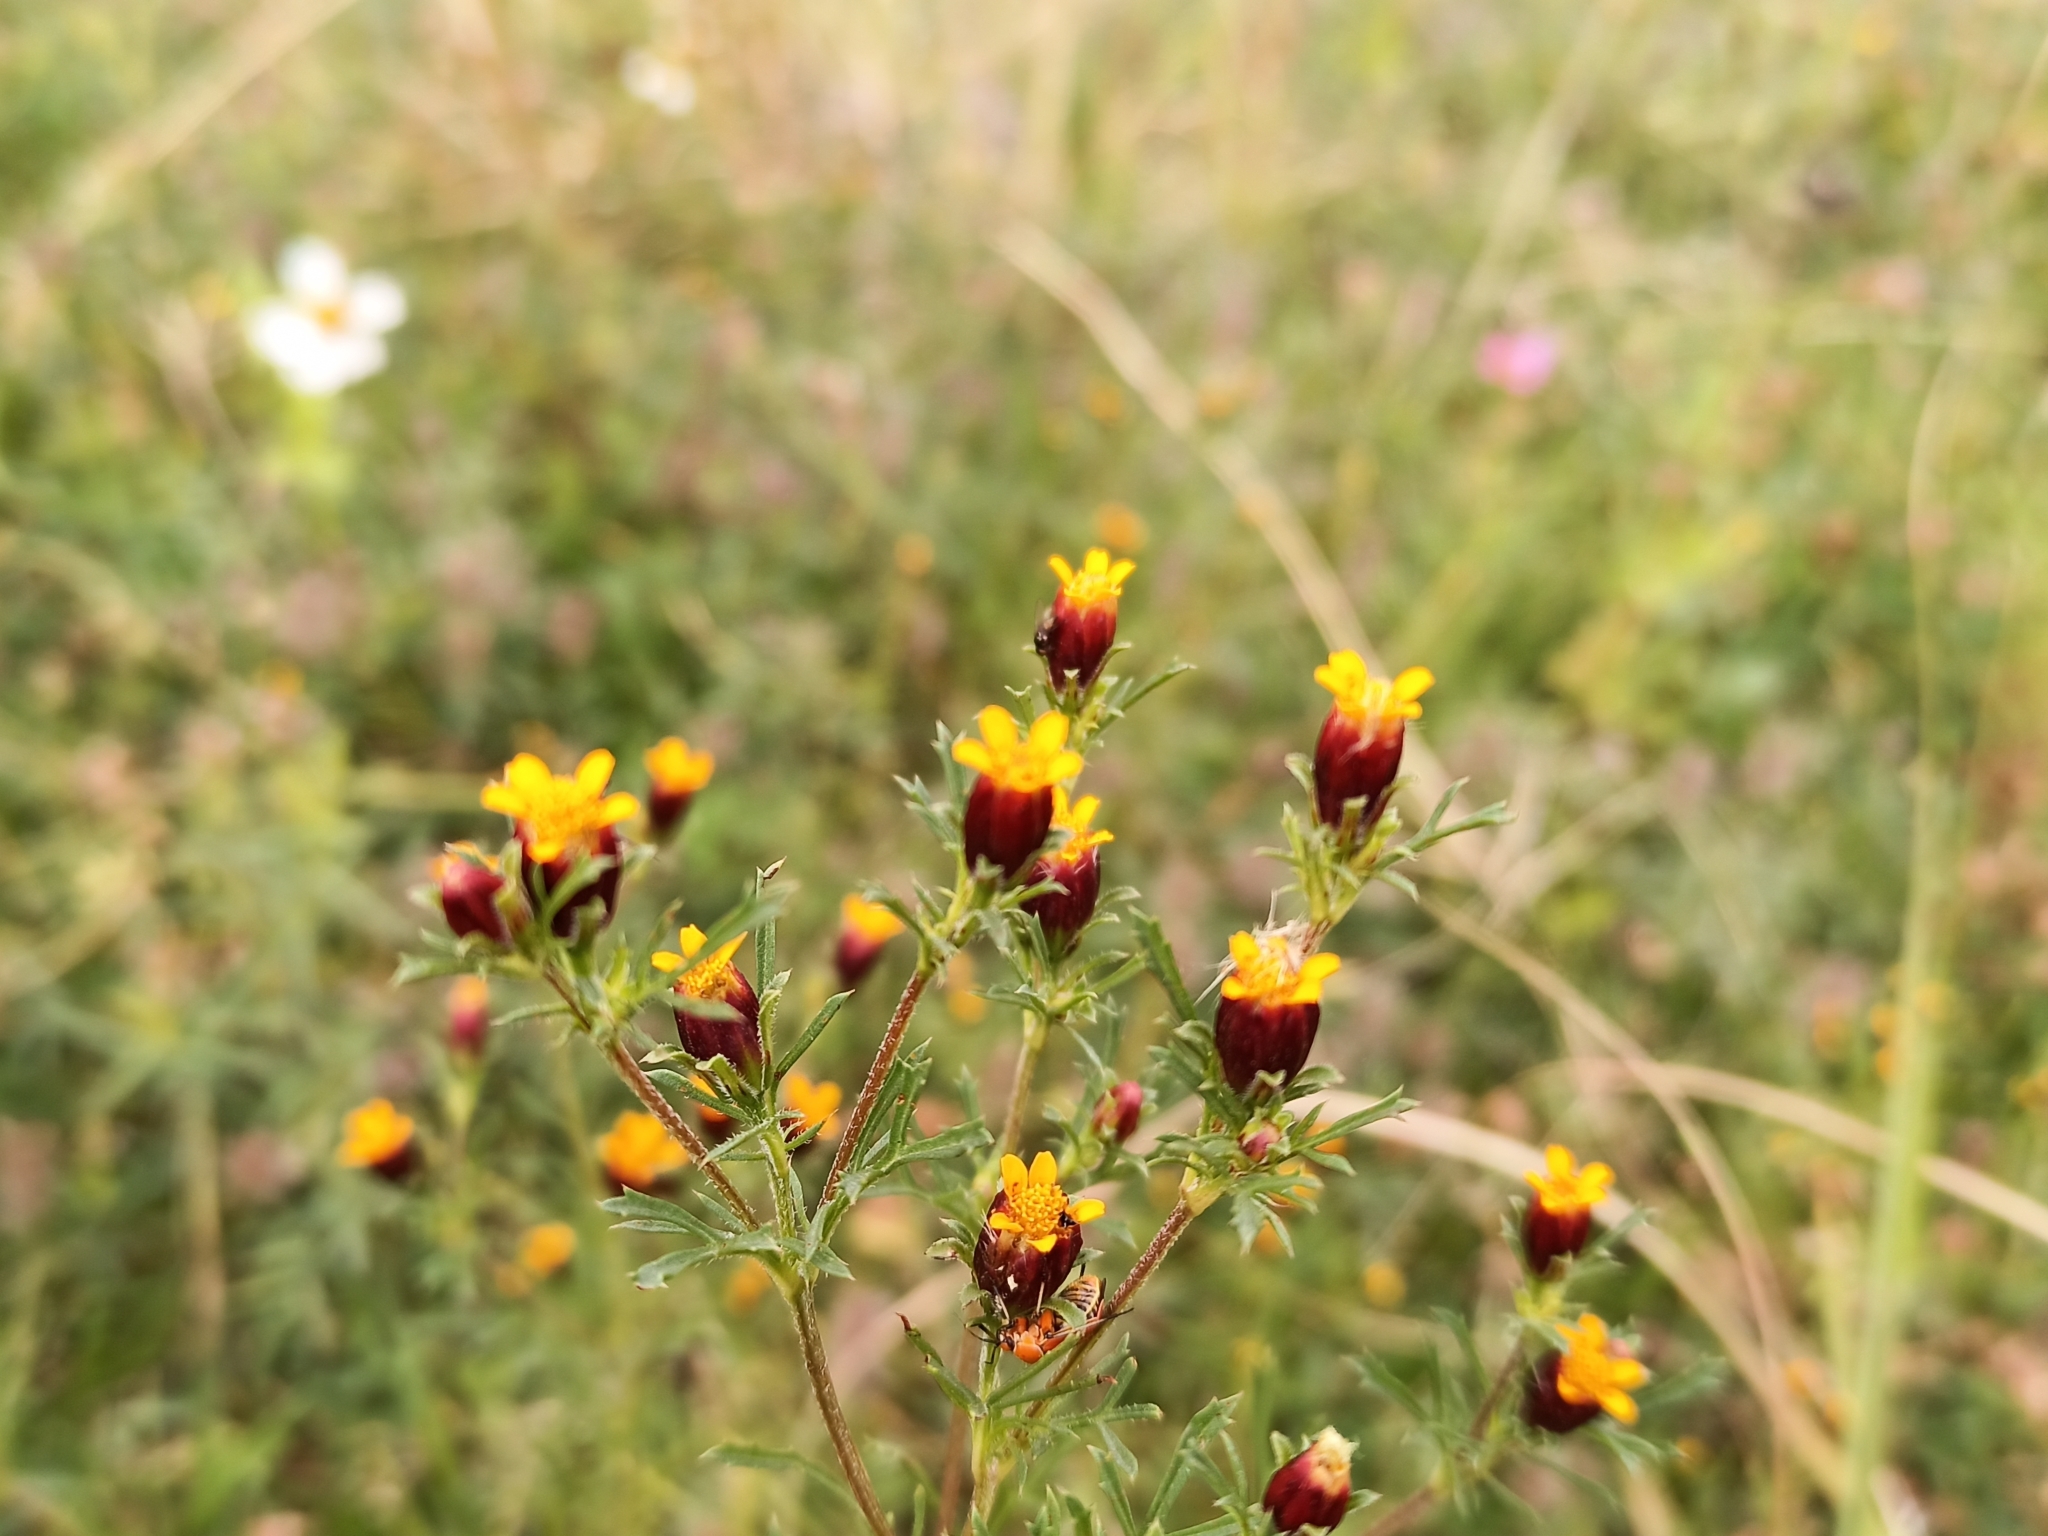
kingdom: Plantae
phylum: Tracheophyta
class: Magnoliopsida
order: Asterales
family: Asteraceae
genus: Dyssodia
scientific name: Dyssodia papposa
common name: Dogweed
